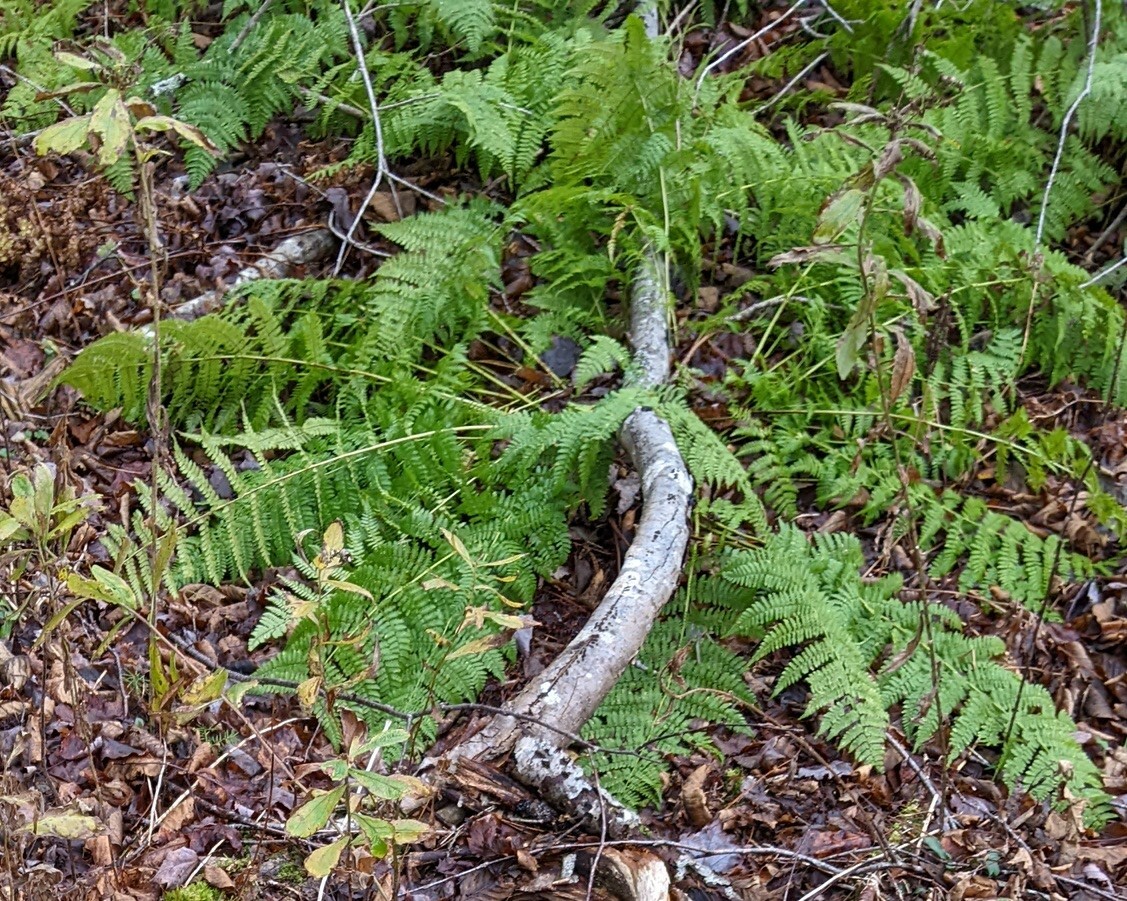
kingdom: Plantae
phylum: Tracheophyta
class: Polypodiopsida
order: Polypodiales
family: Dryopteridaceae
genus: Dryopteris
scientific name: Dryopteris intermedia
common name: Evergreen wood fern
